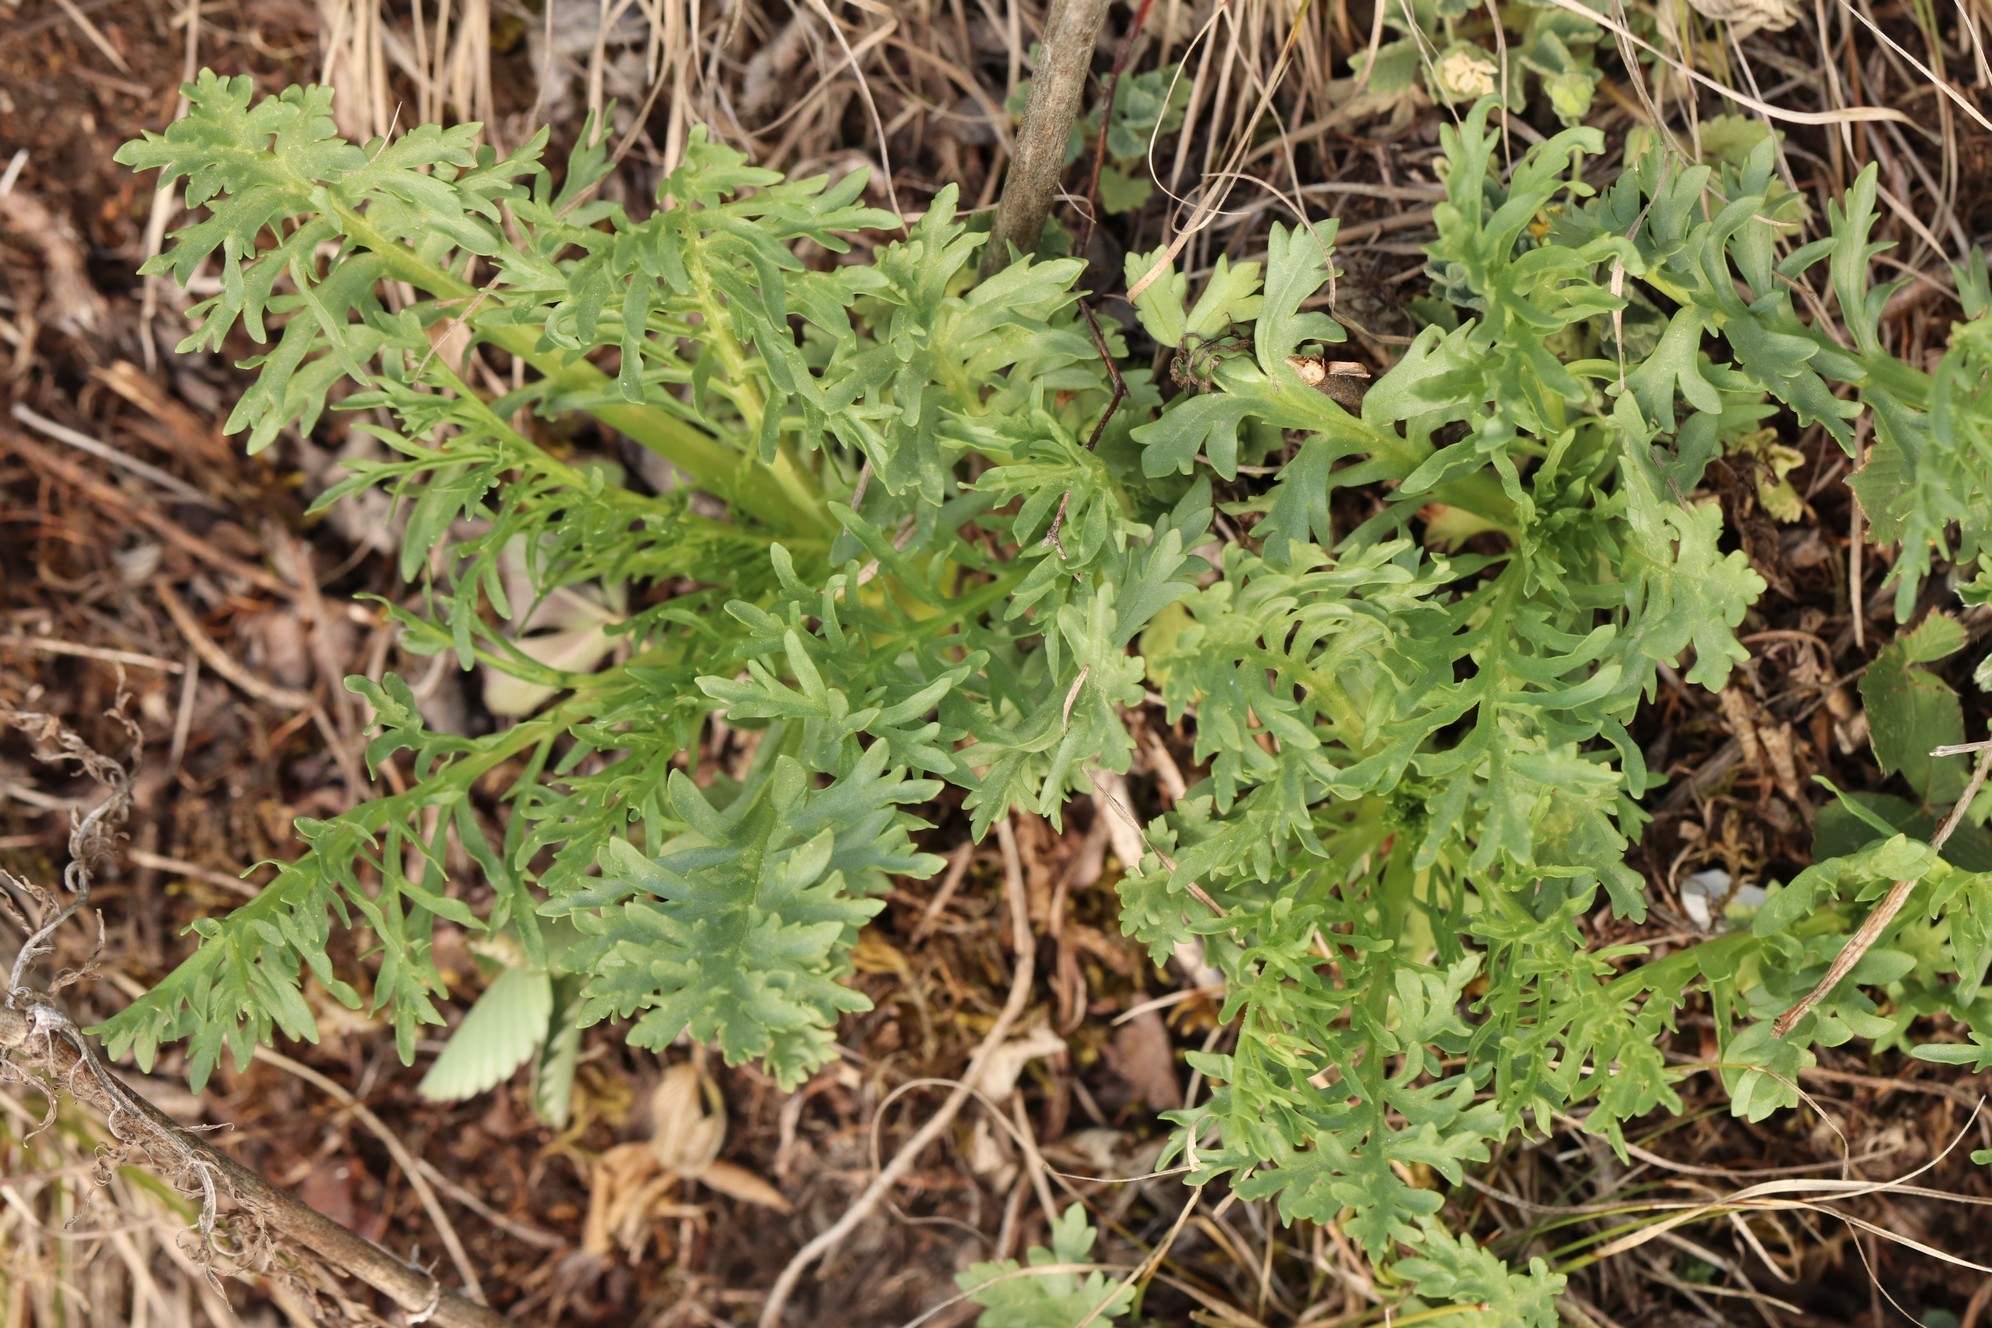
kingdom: Plantae
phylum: Tracheophyta
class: Magnoliopsida
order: Dipsacales
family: Caprifoliaceae
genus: Patrinia
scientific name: Patrinia intermedia
